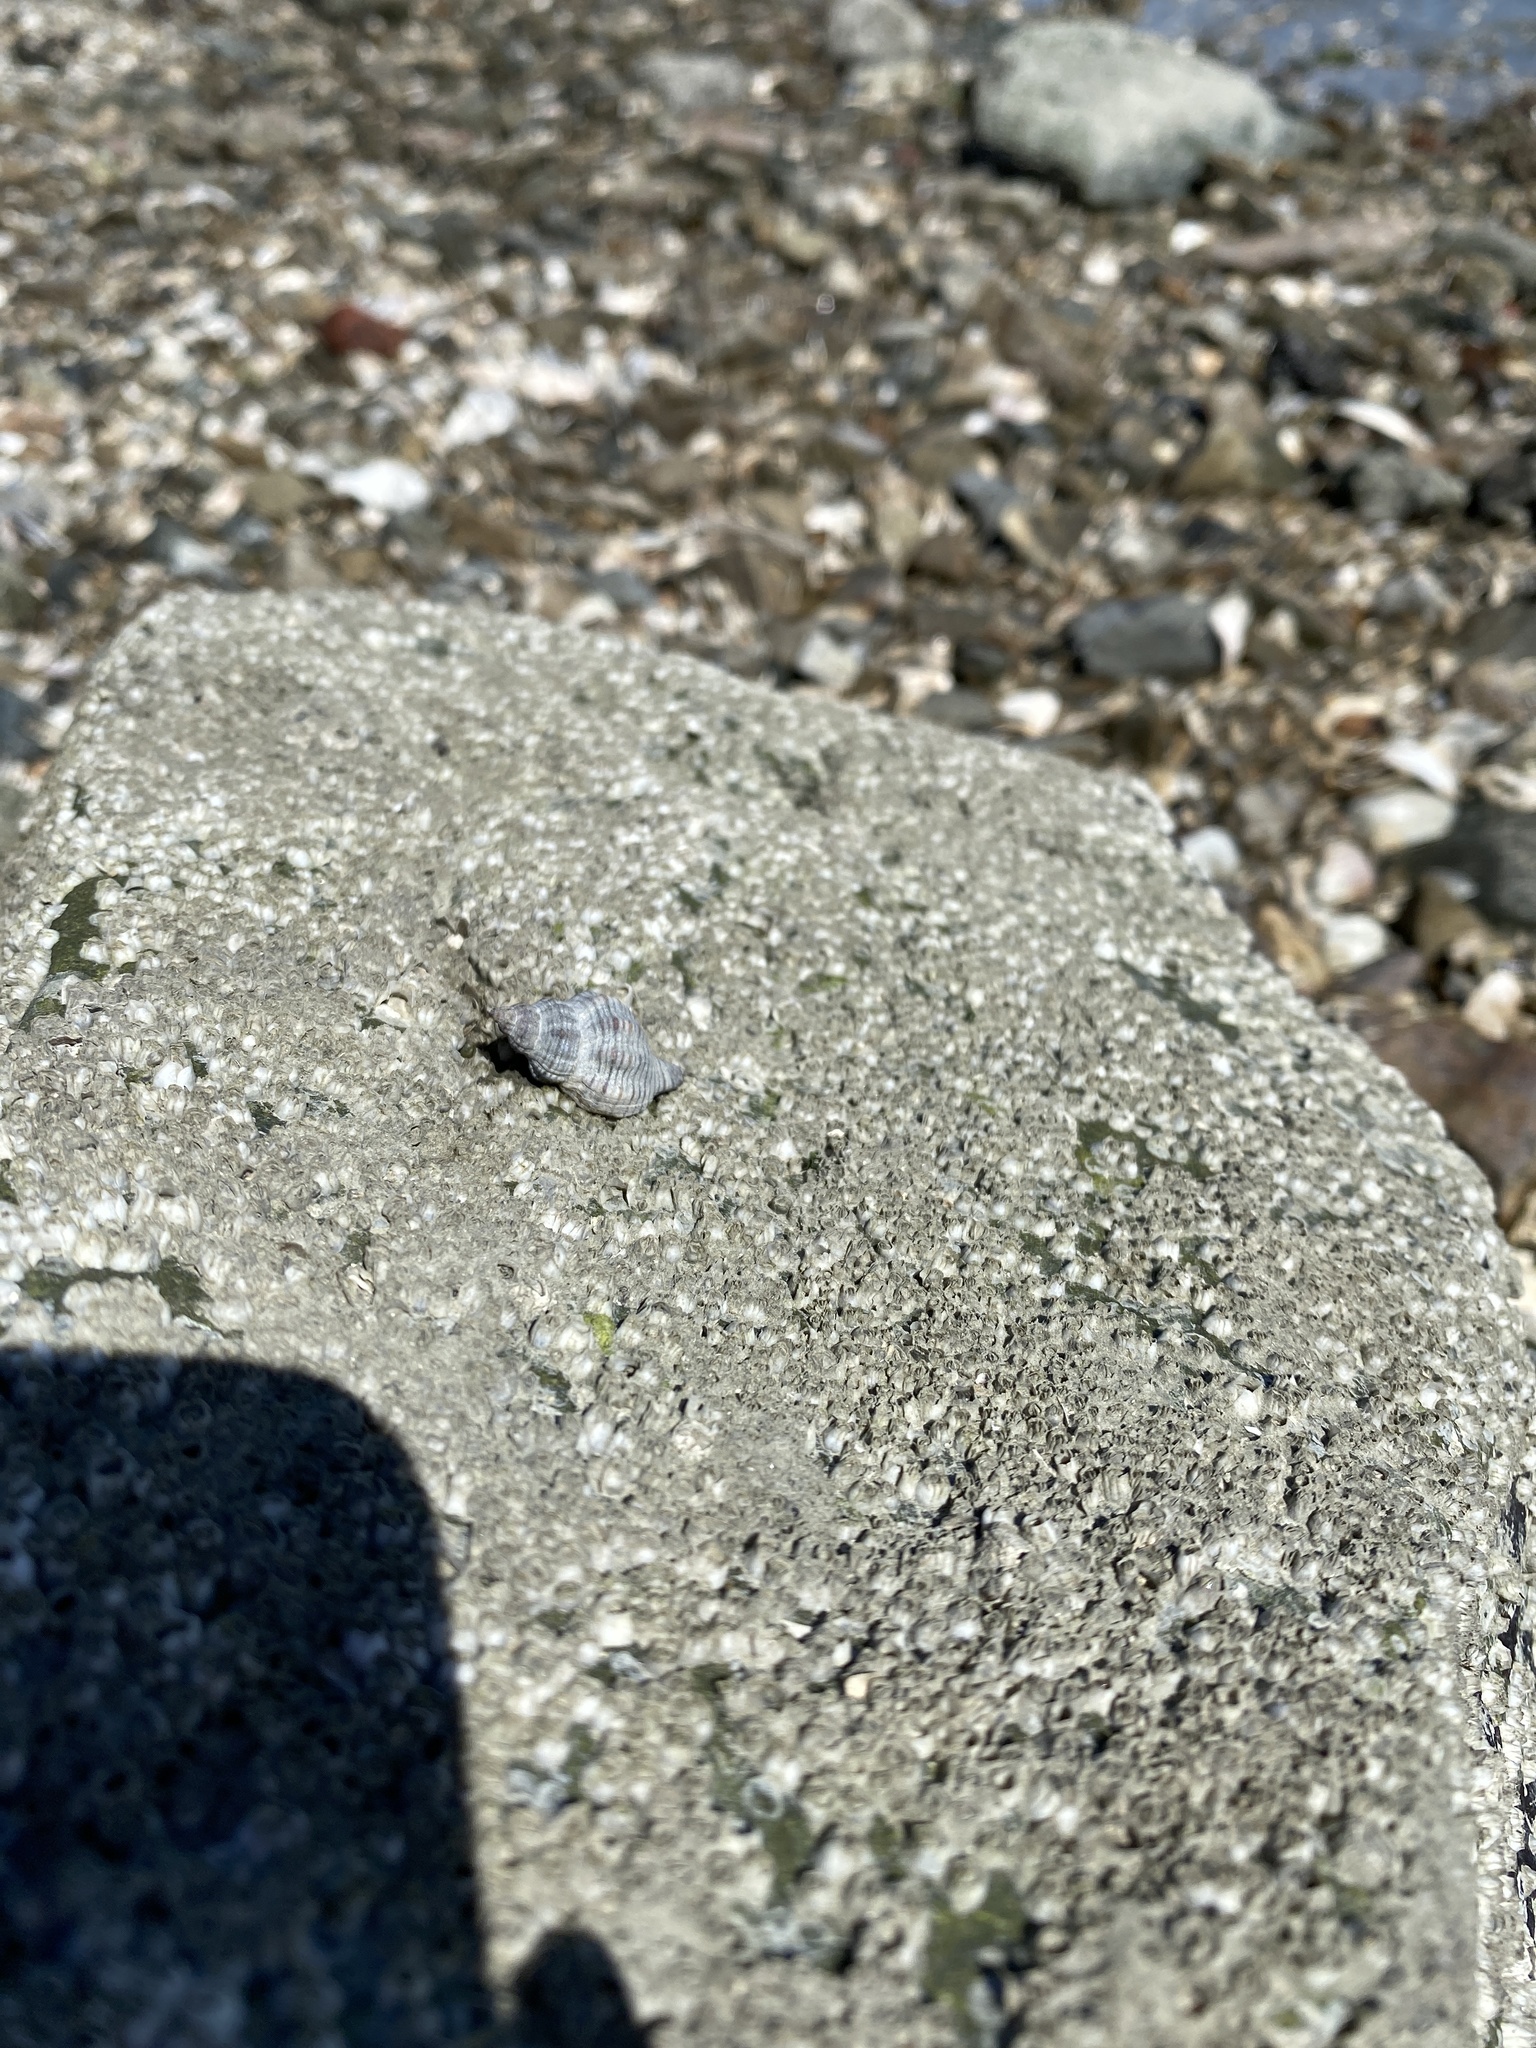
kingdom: Animalia
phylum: Mollusca
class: Gastropoda
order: Neogastropoda
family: Muricidae
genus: Urosalpinx
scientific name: Urosalpinx cinerea
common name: American sting winkle
